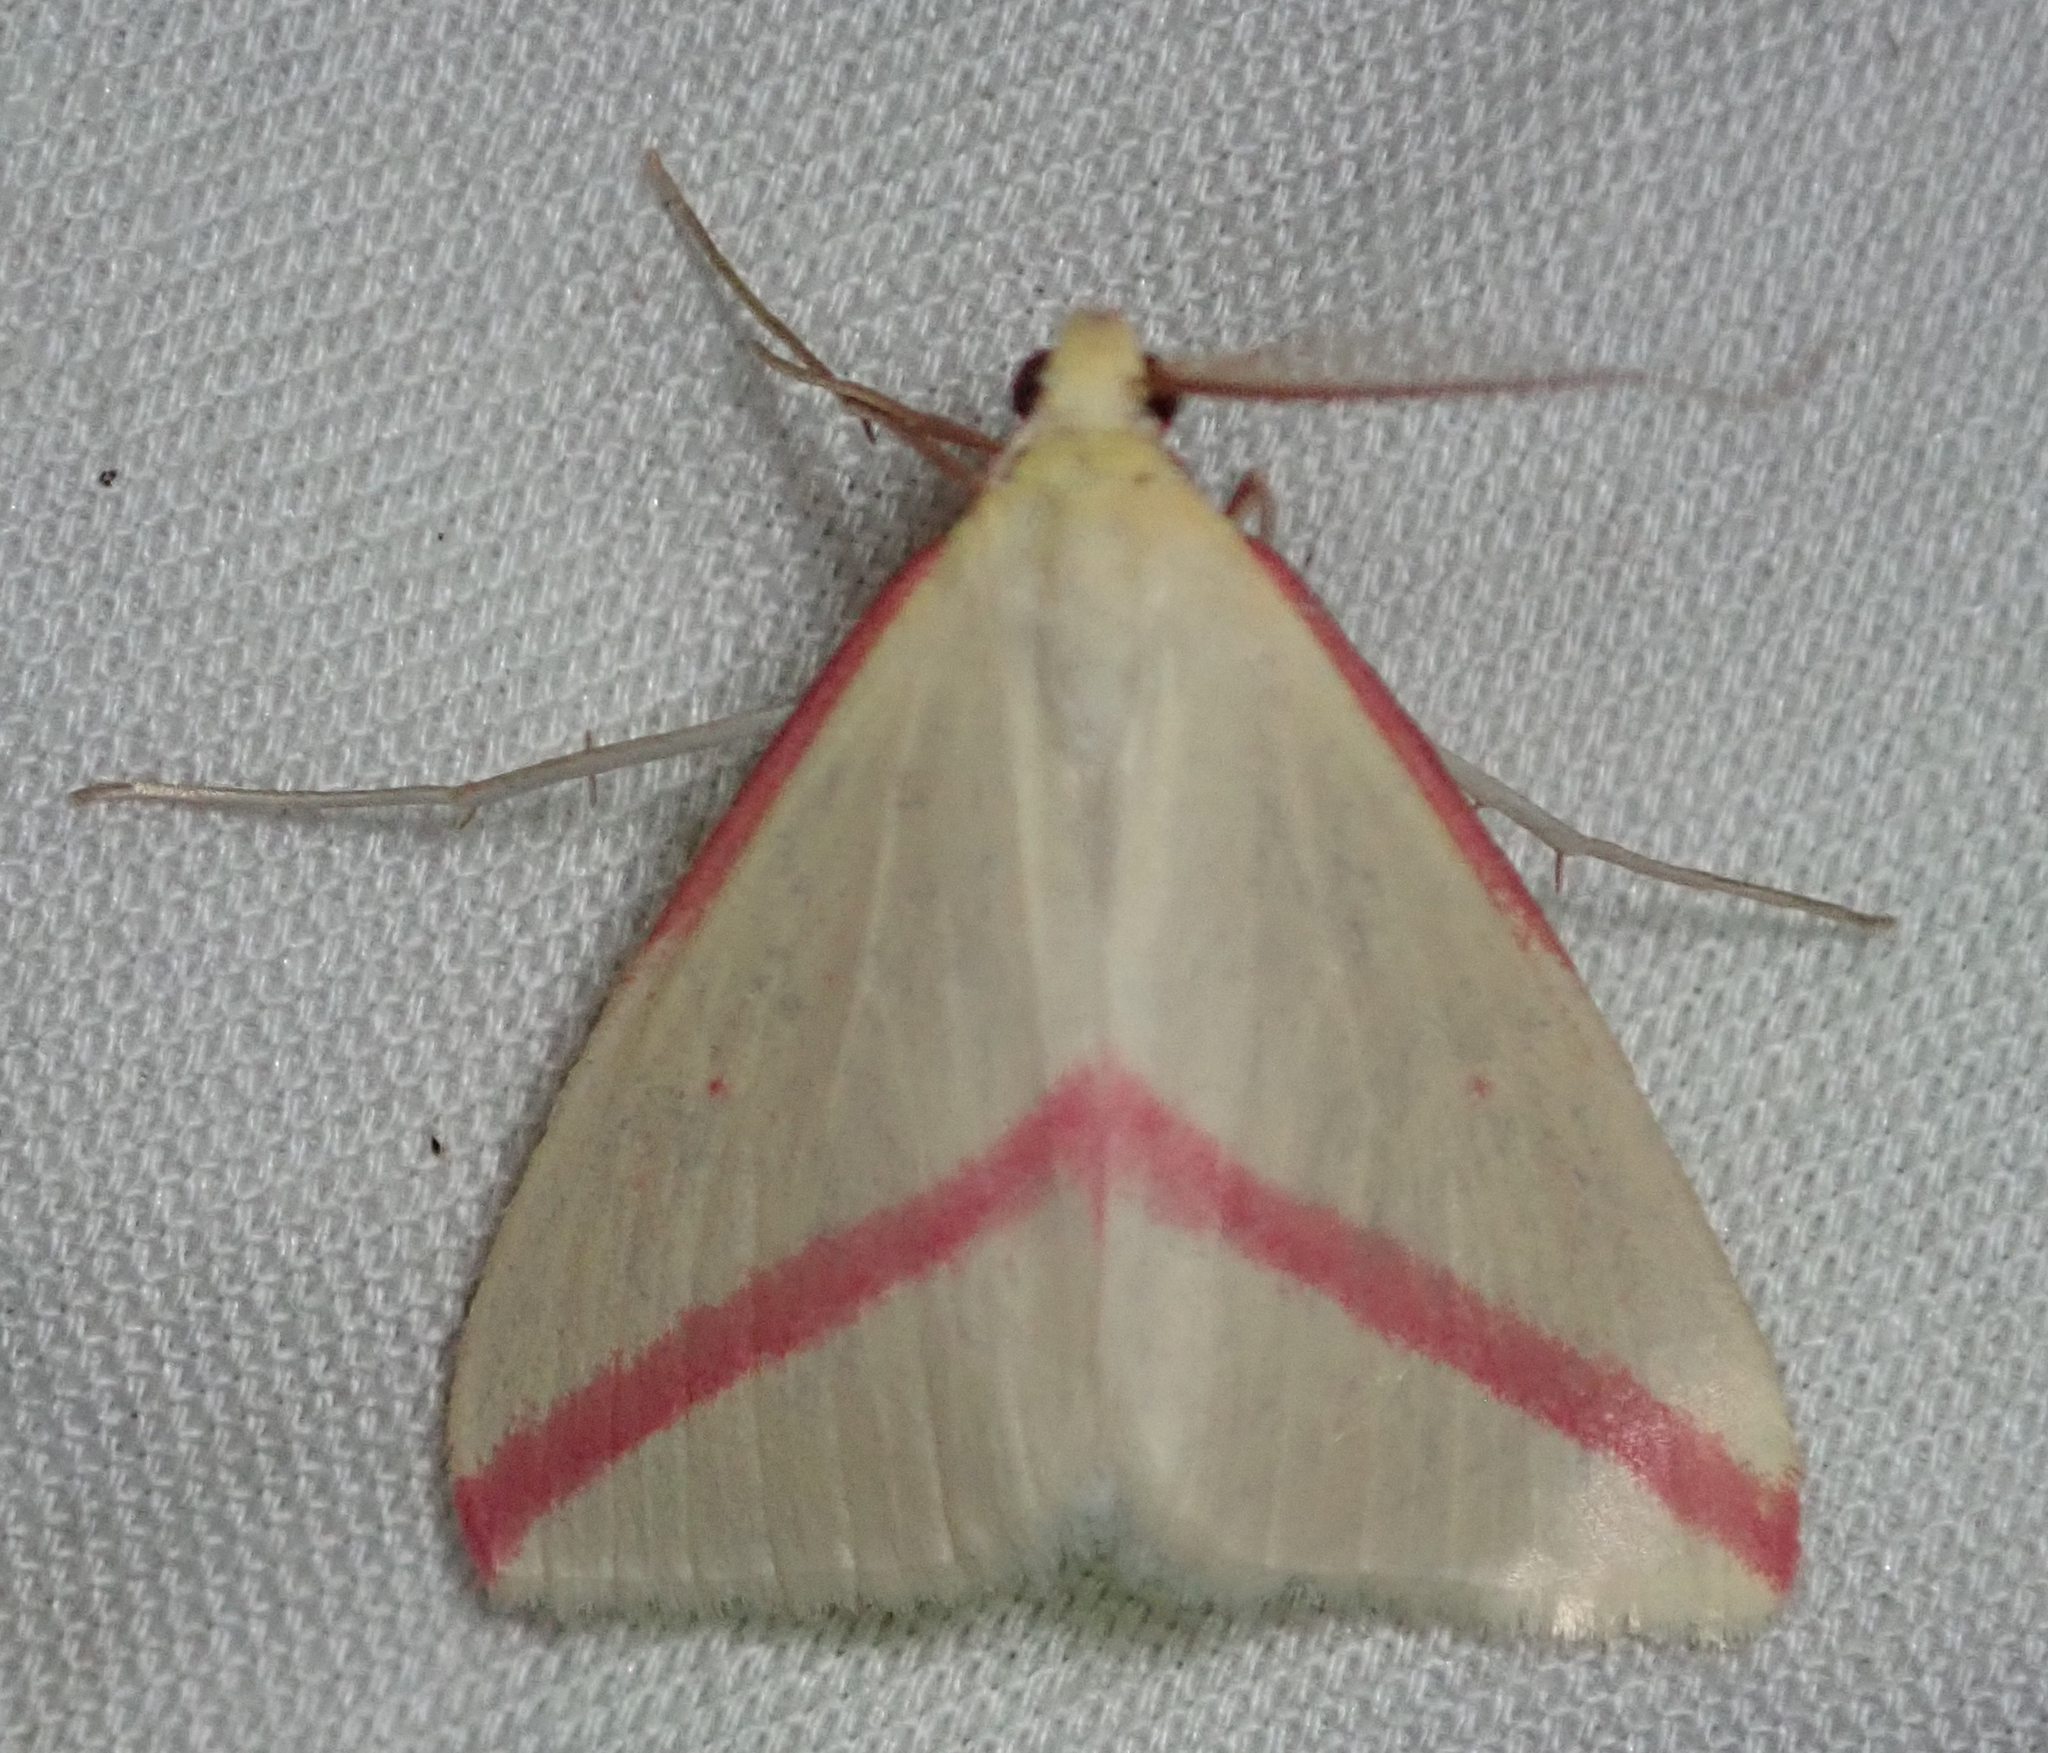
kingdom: Animalia
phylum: Arthropoda
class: Insecta
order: Lepidoptera
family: Geometridae
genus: Rhodometra
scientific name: Rhodometra sacraria
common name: Vestal
